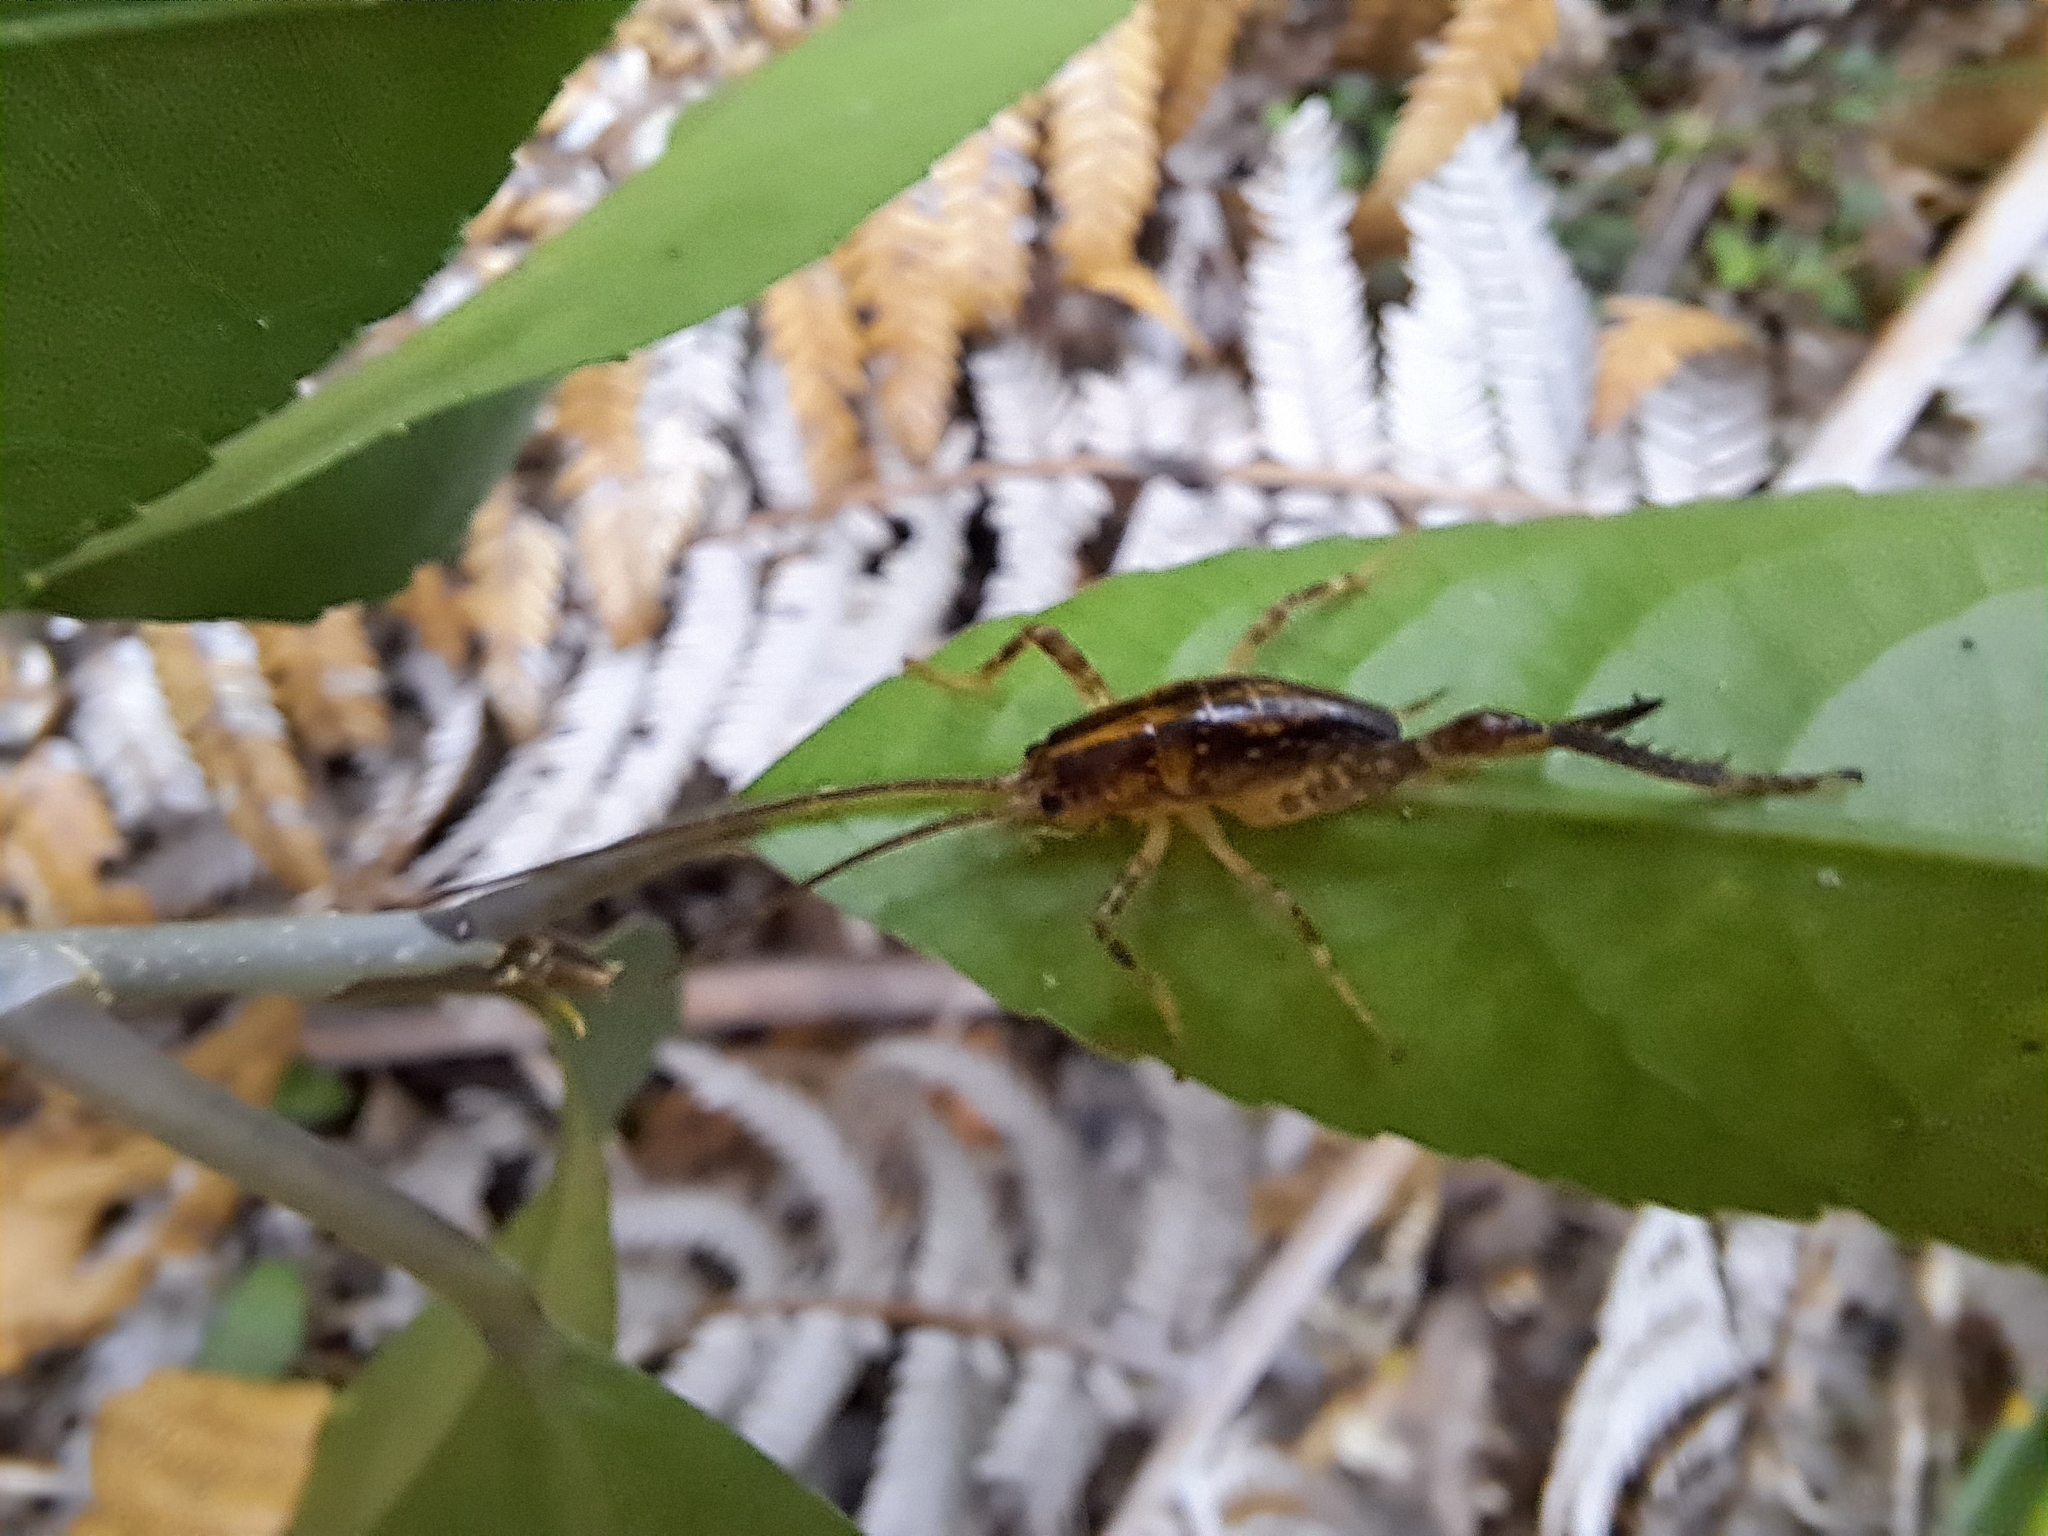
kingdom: Animalia
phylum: Arthropoda
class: Insecta
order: Orthoptera
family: Rhaphidophoridae
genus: Talitropsis
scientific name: Talitropsis sedilloti
